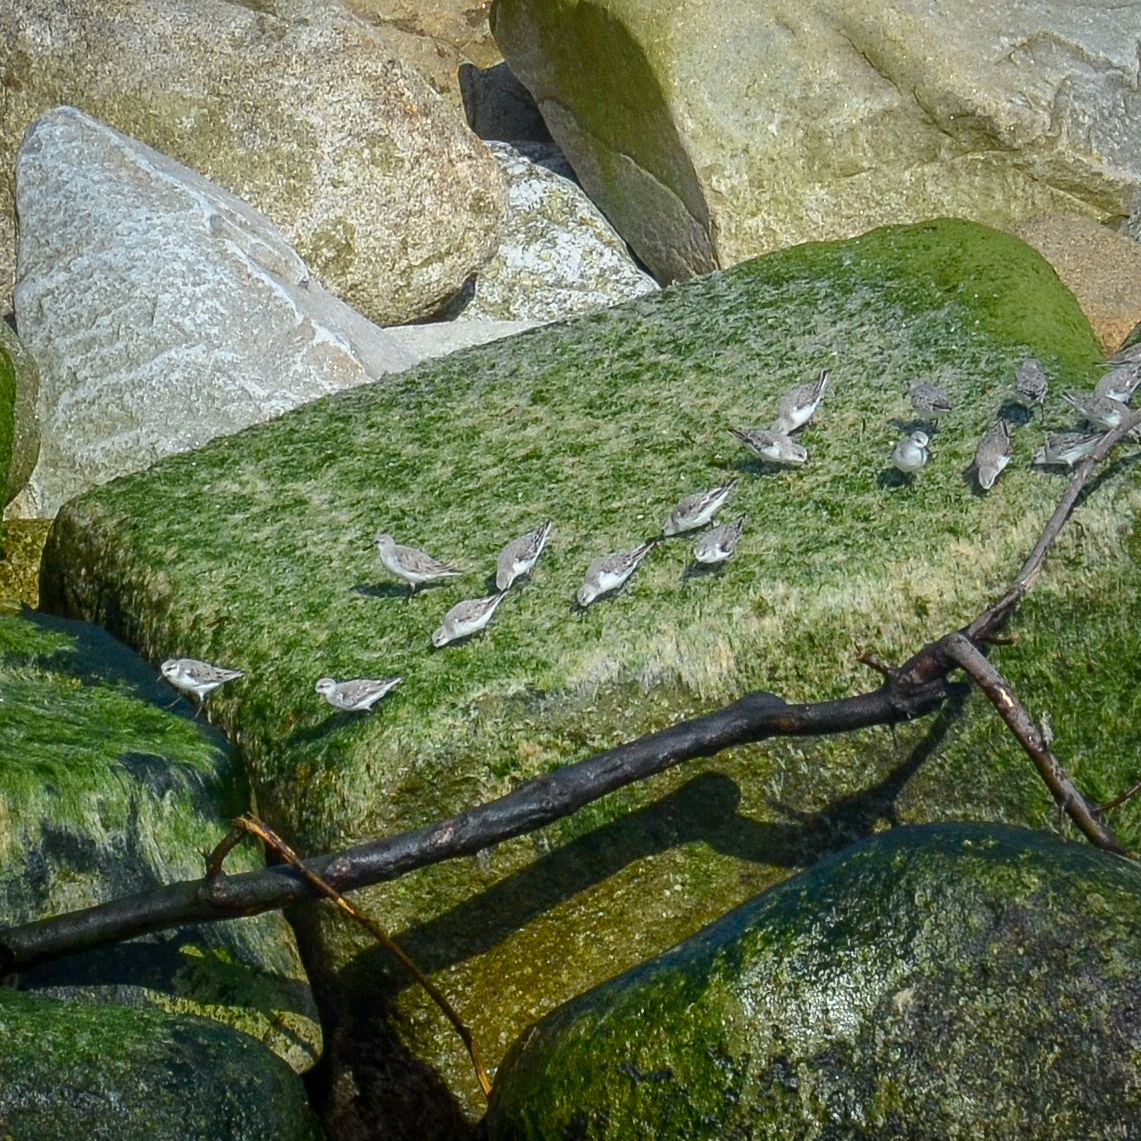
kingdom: Animalia
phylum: Chordata
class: Aves
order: Charadriiformes
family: Scolopacidae
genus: Calidris
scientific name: Calidris alba
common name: Sanderling
